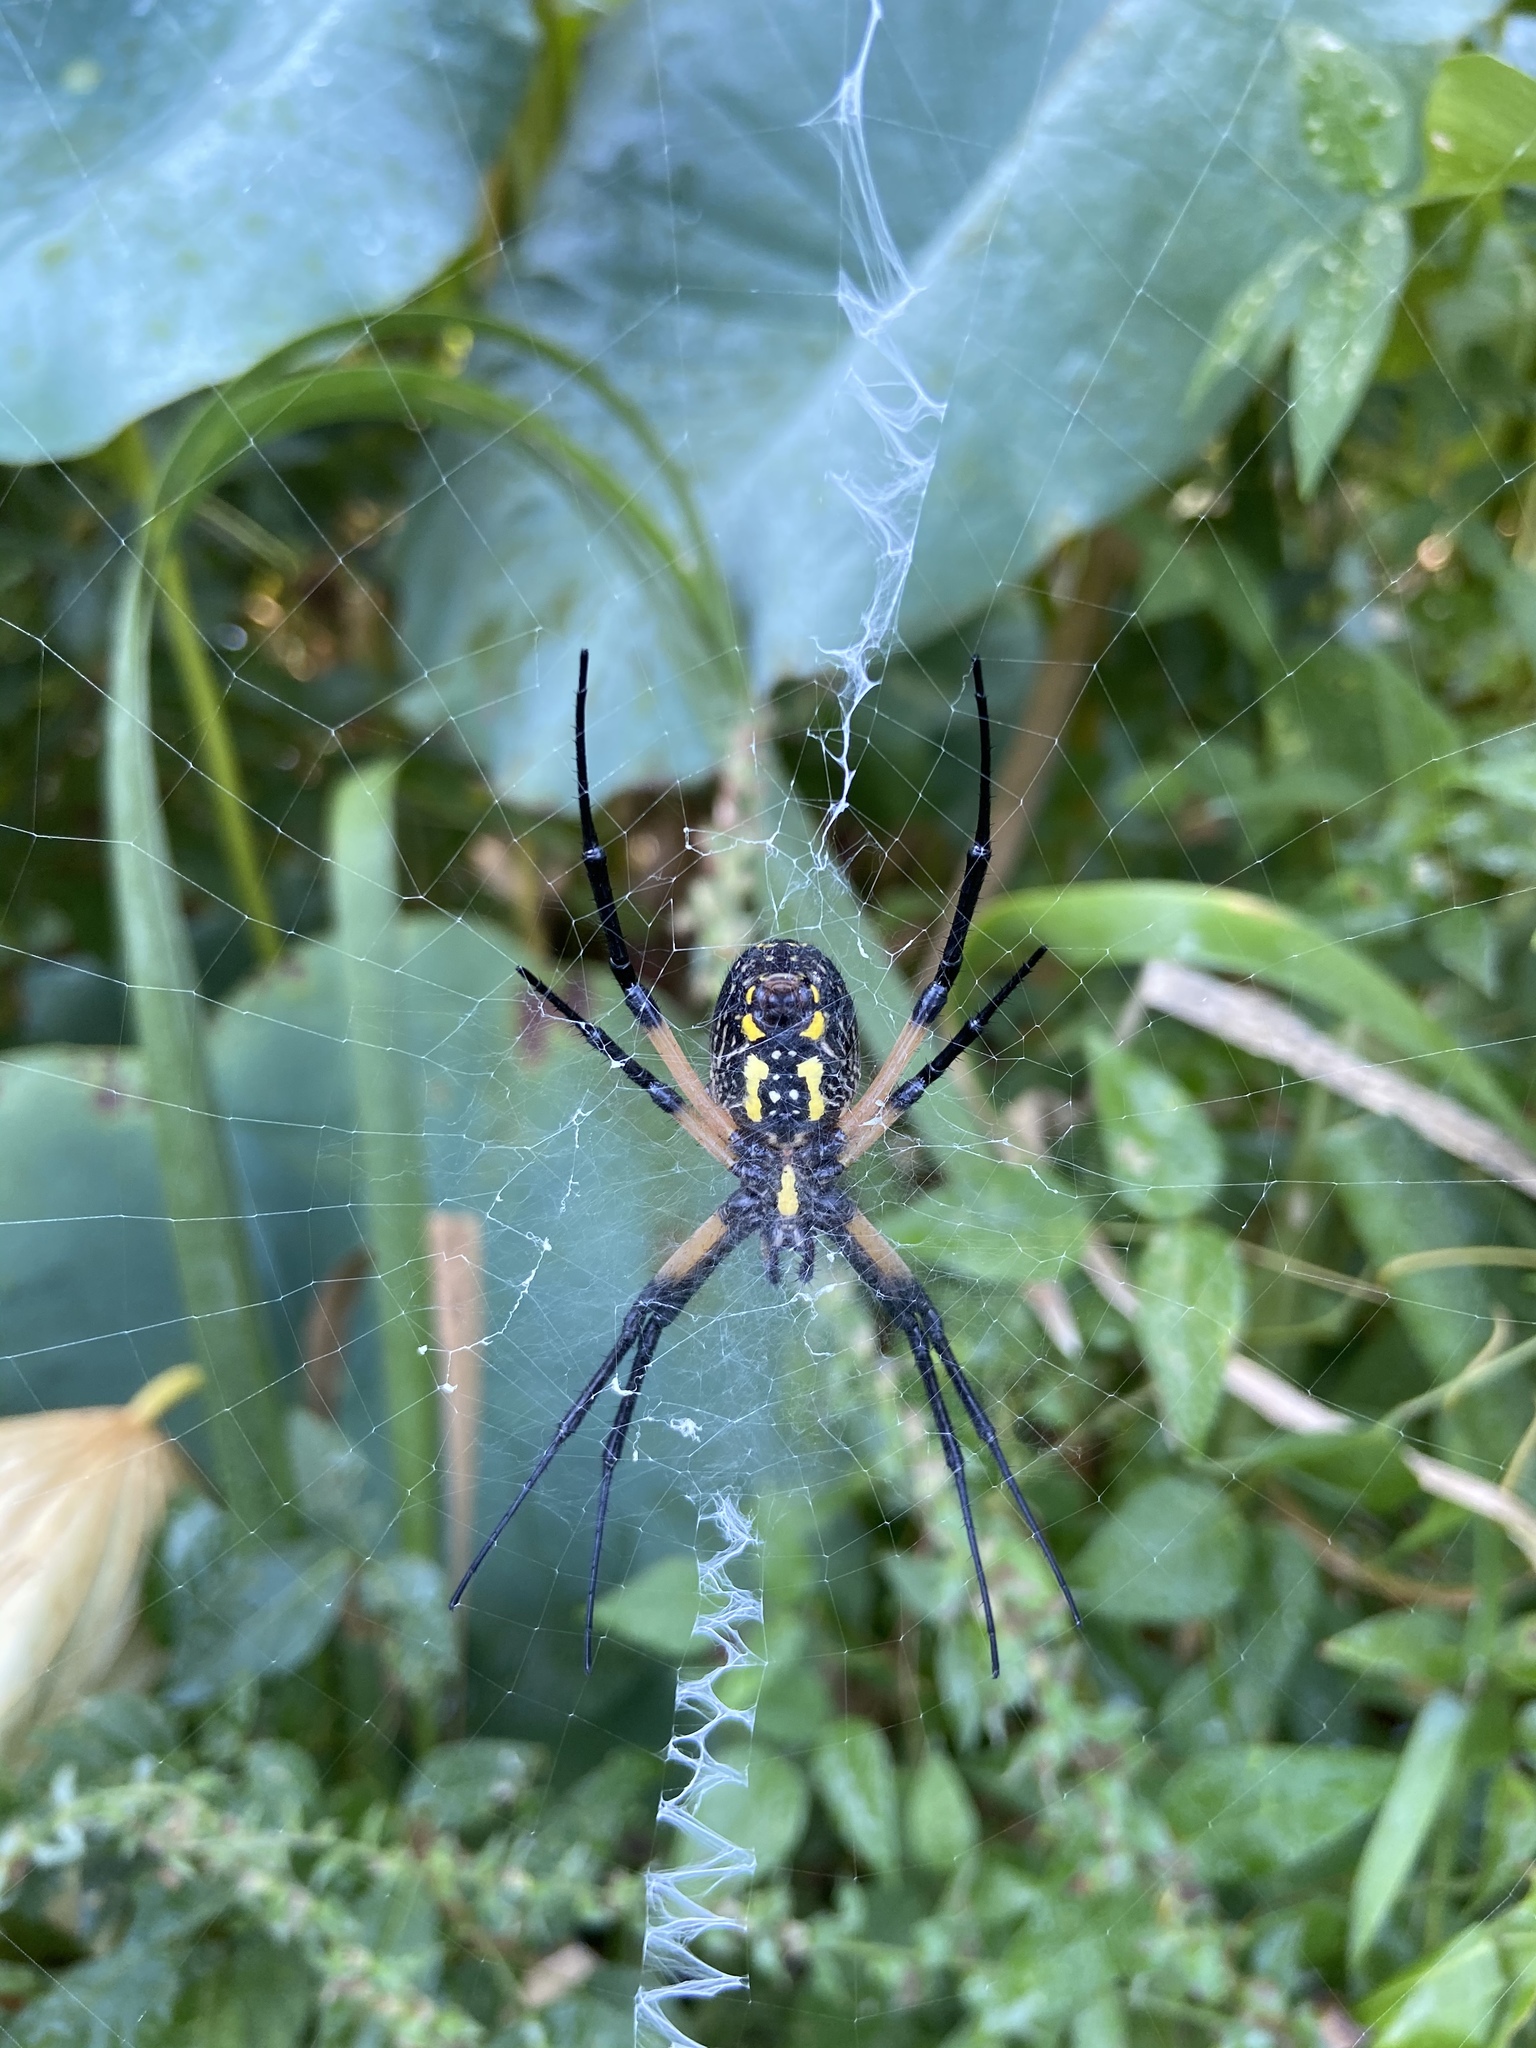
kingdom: Animalia
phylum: Arthropoda
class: Arachnida
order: Araneae
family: Araneidae
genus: Argiope
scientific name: Argiope aurantia
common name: Orb weavers
